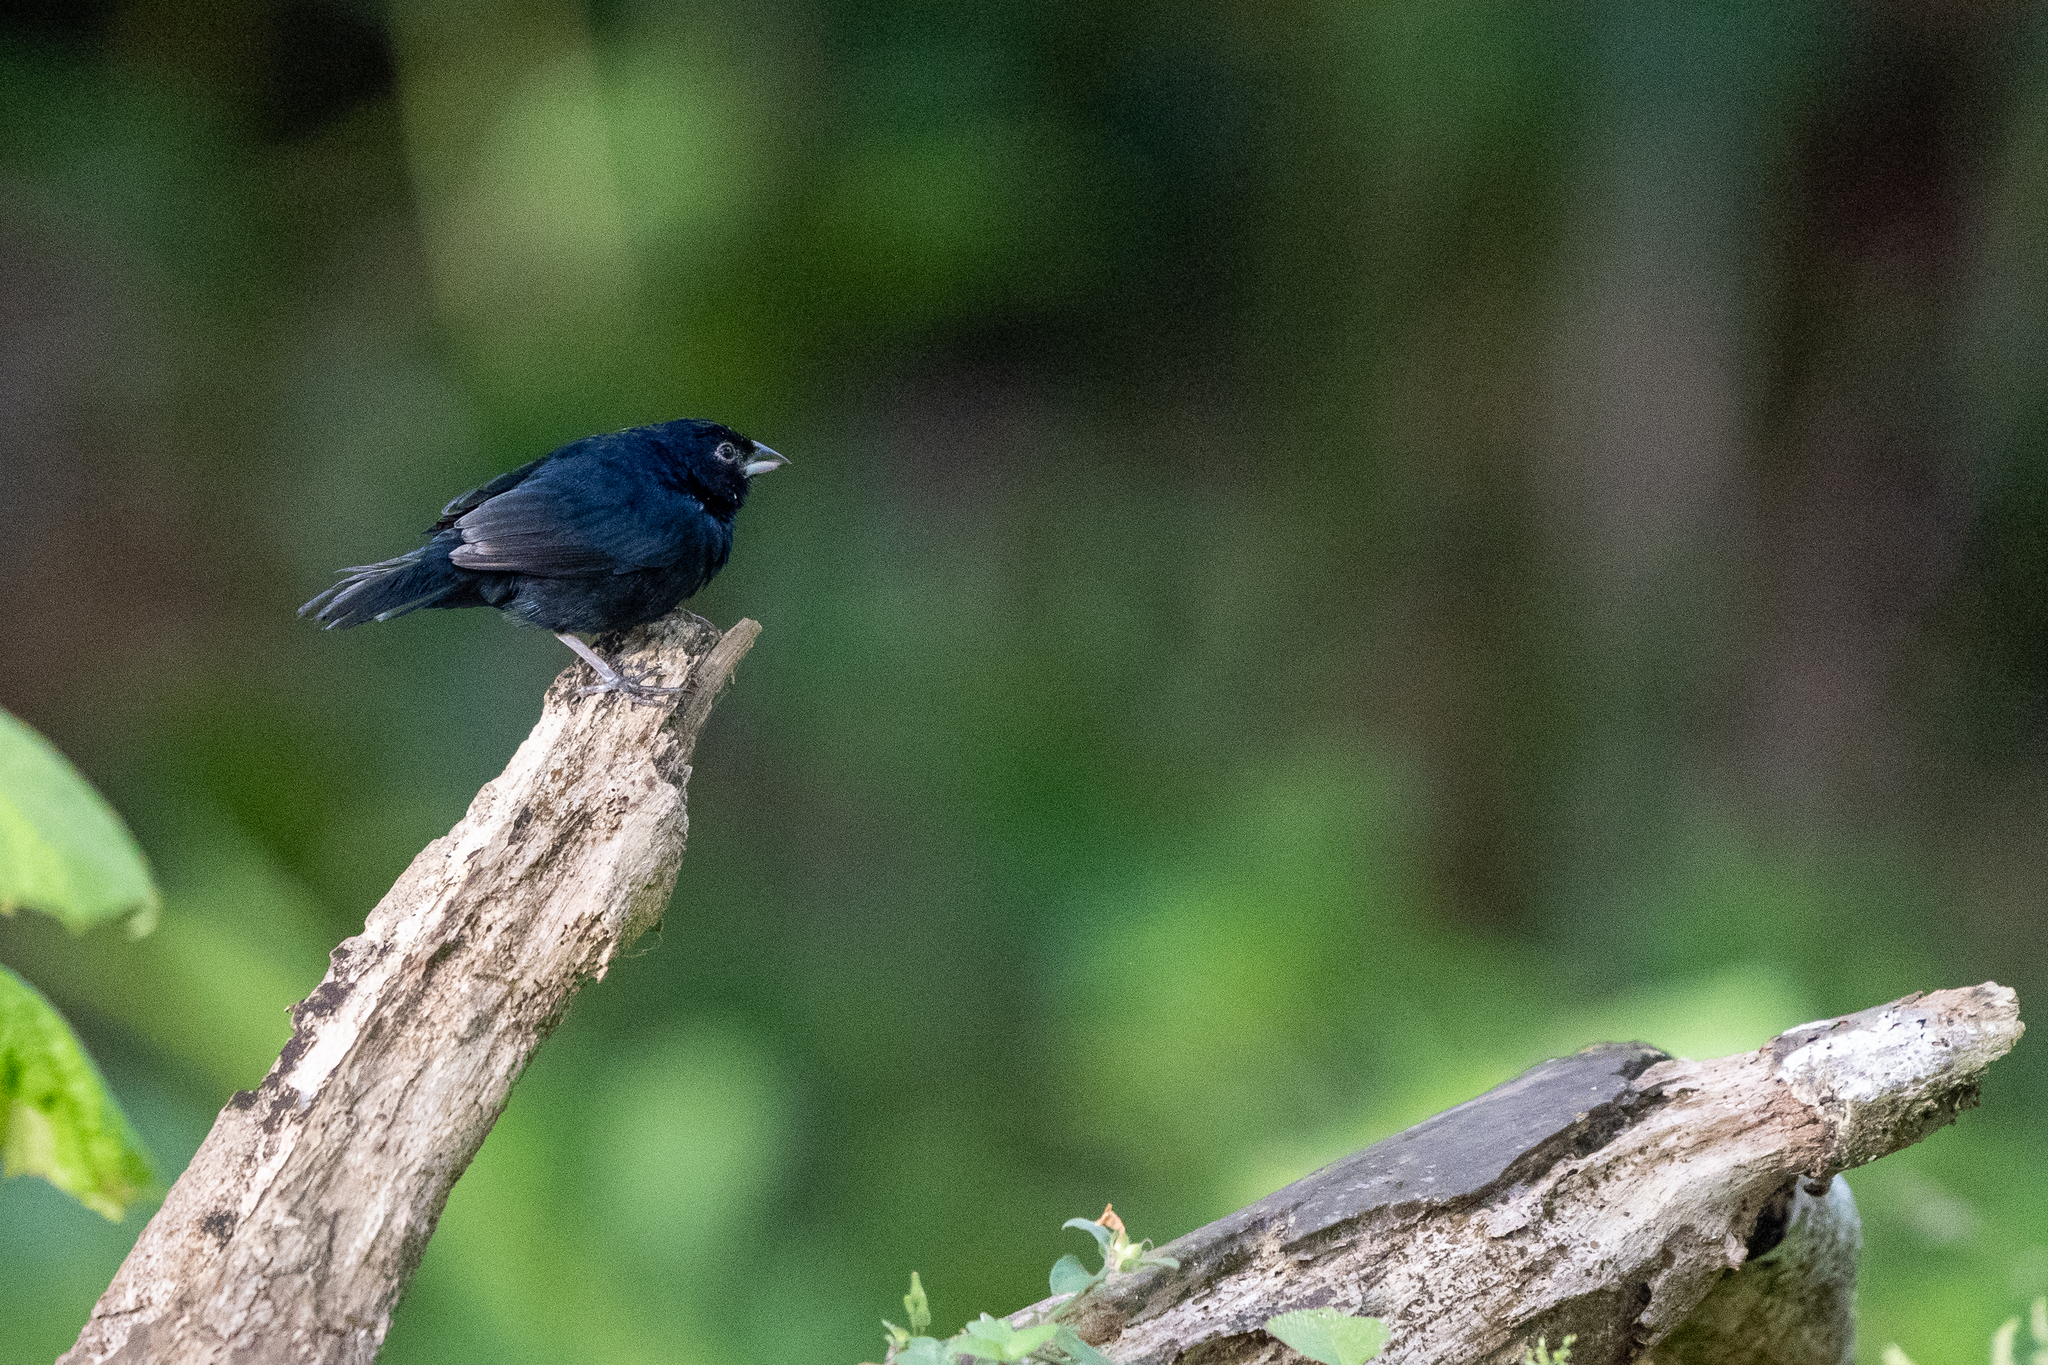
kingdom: Animalia
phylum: Chordata
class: Aves
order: Passeriformes
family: Thraupidae
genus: Volatinia
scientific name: Volatinia jacarina
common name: Blue-black grassquit
